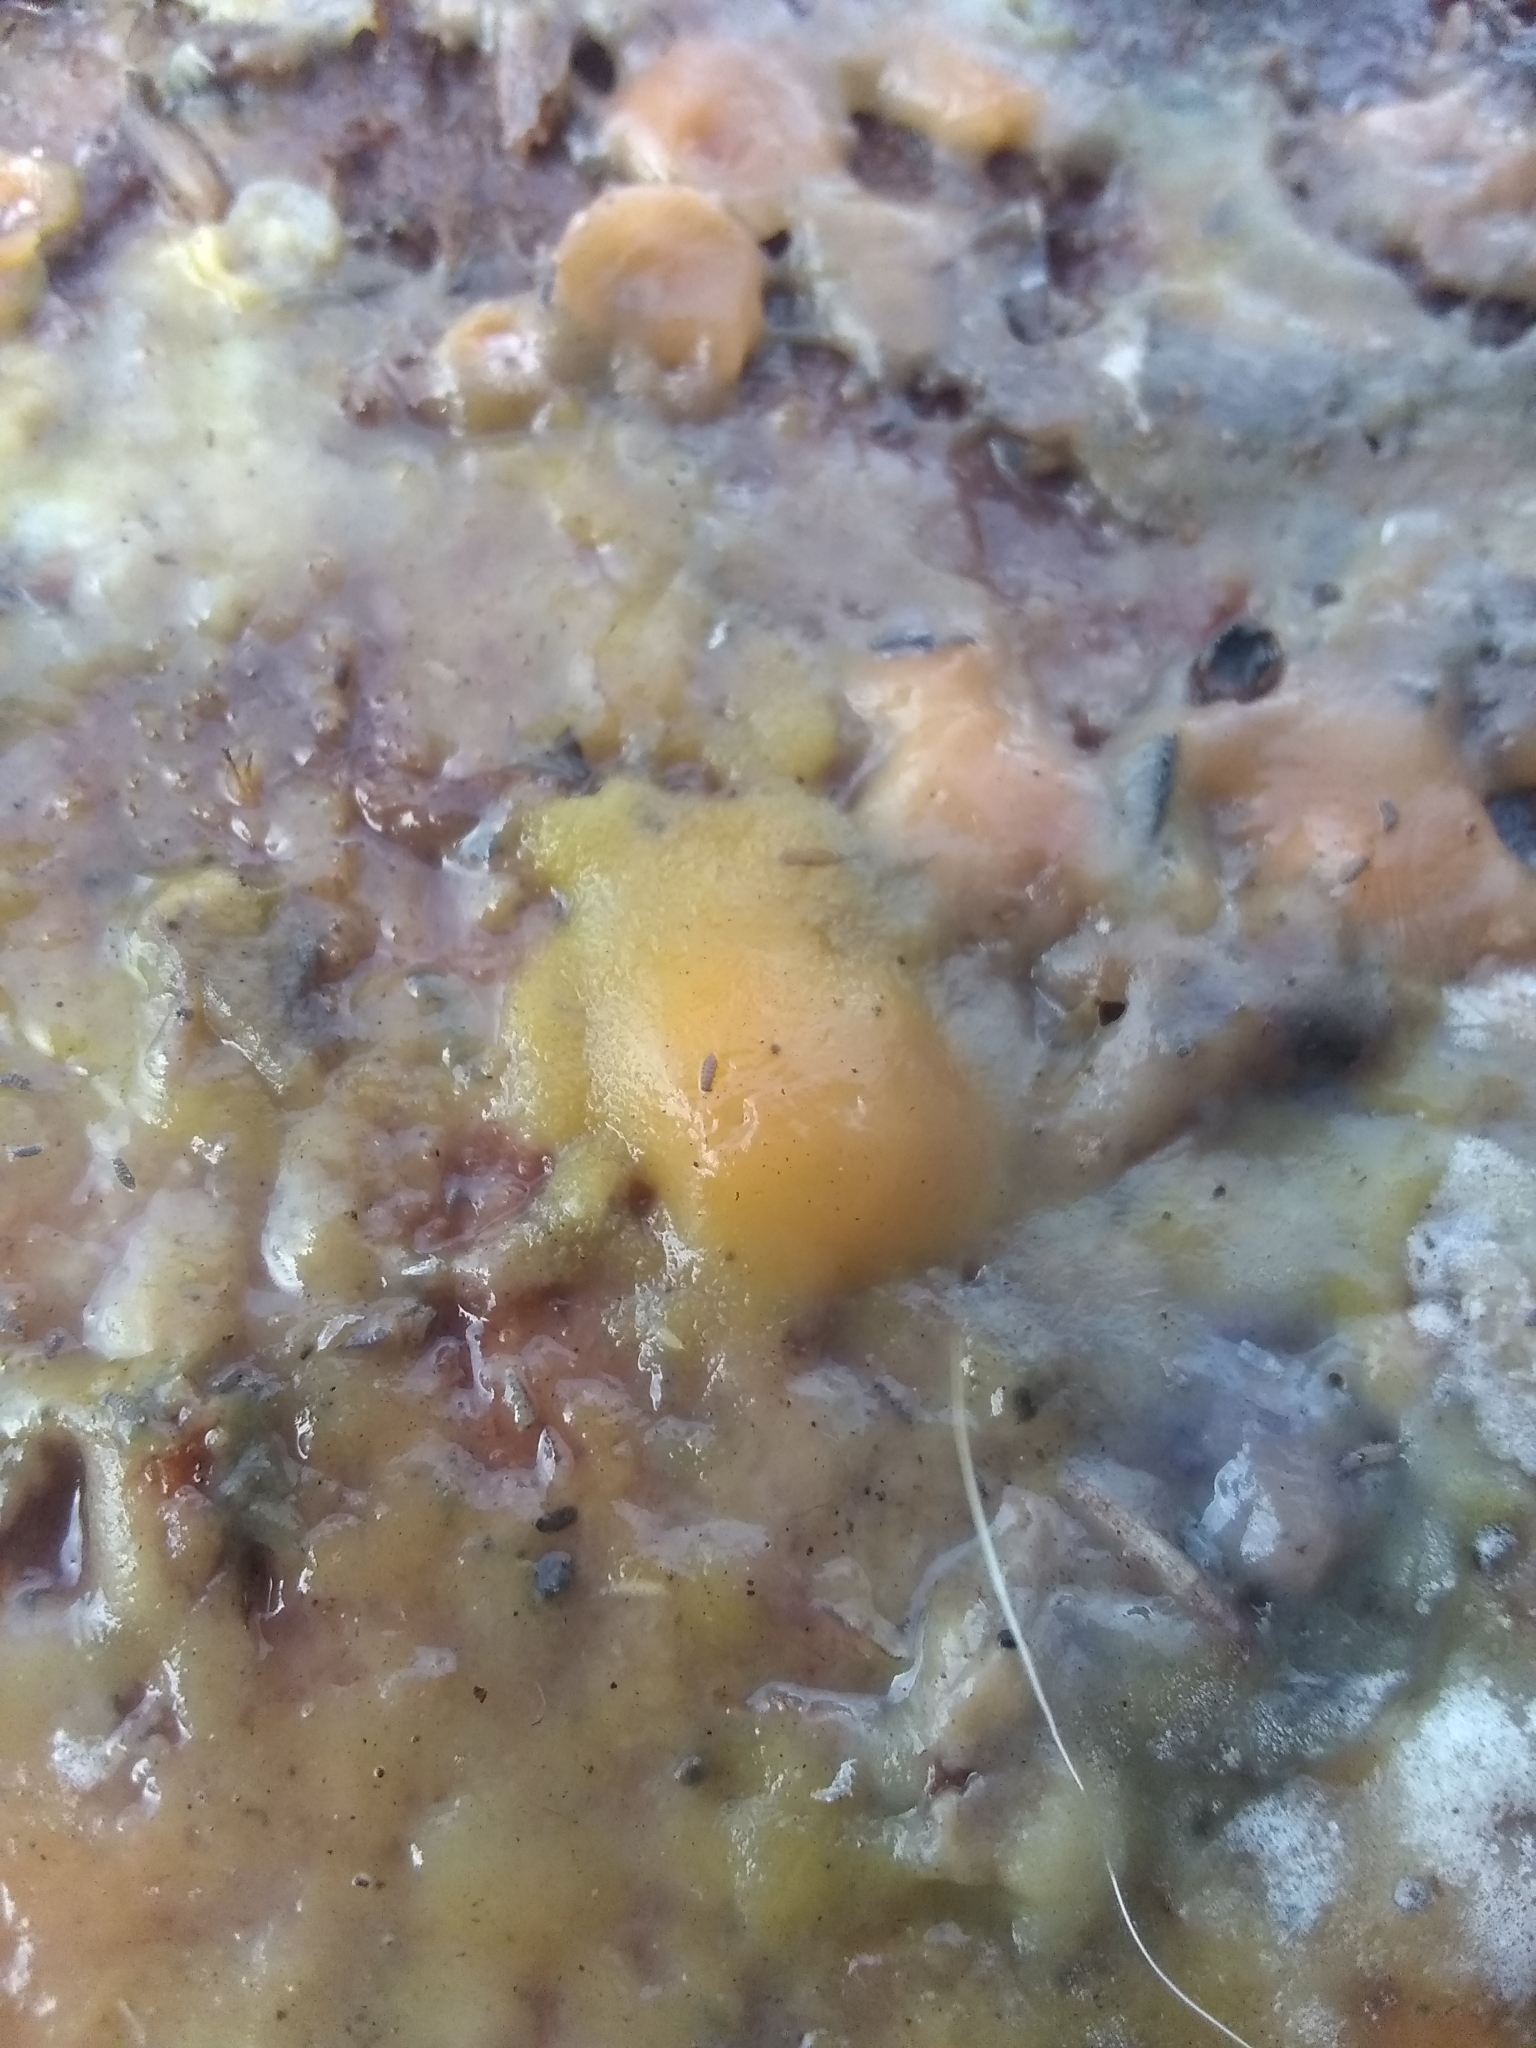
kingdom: Fungi
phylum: Ascomycota
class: Sordariomycetes
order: Hypocreales
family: Nectriaceae
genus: Fusicolla
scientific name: Fusicolla merismoides
